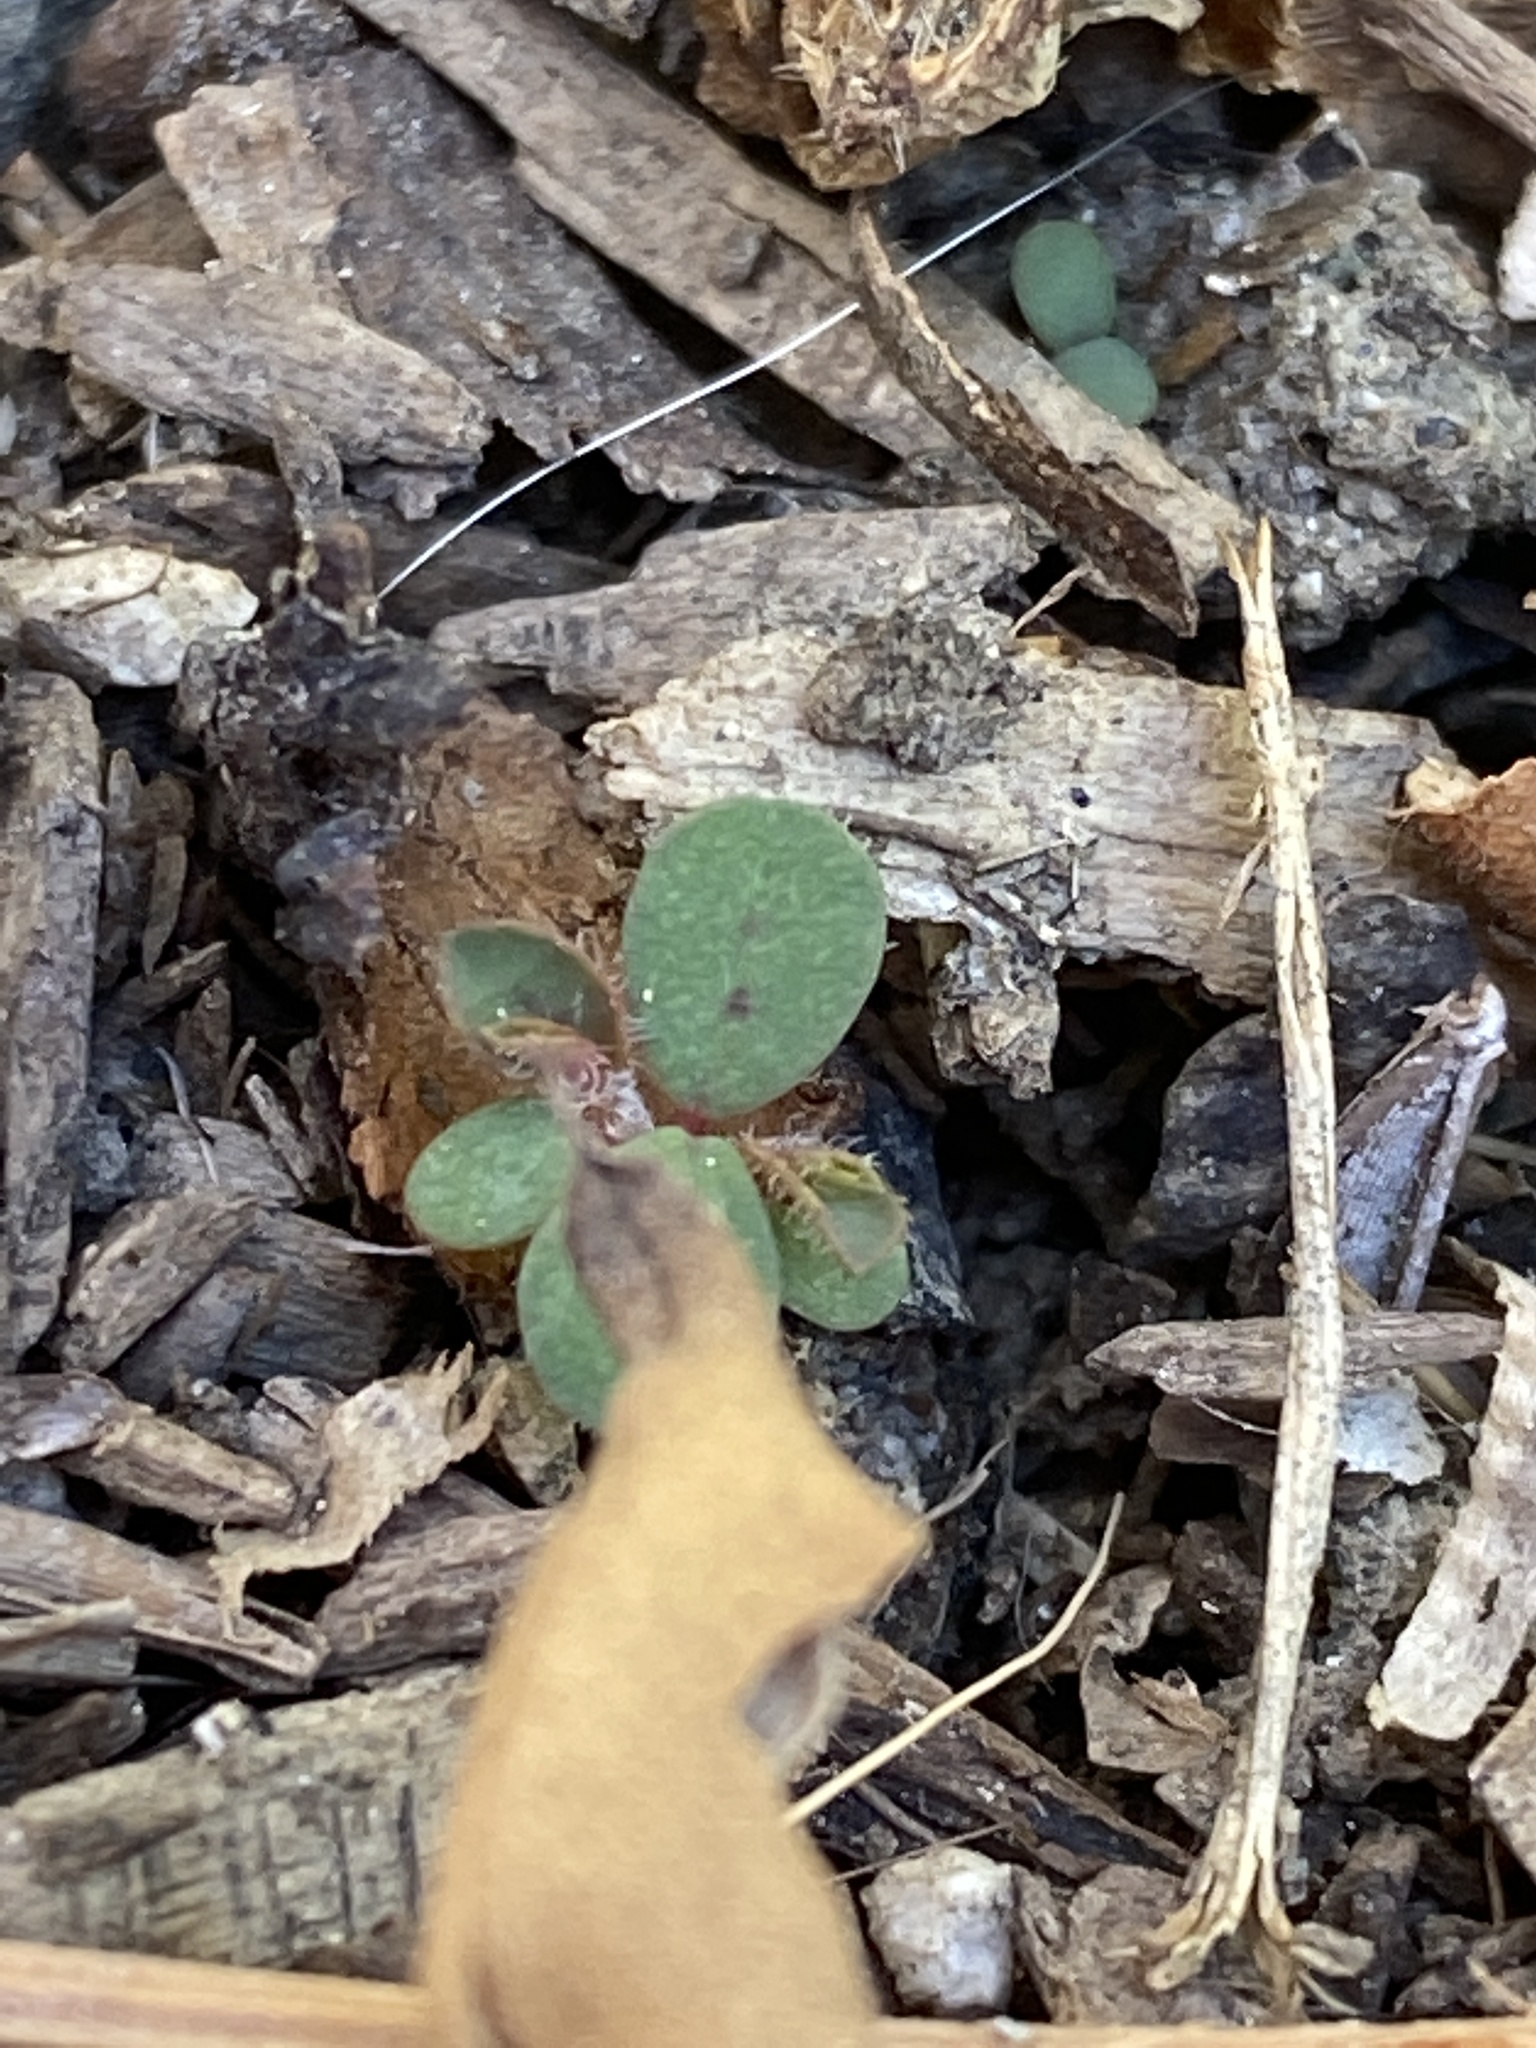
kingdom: Plantae
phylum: Tracheophyta
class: Magnoliopsida
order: Malpighiales
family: Euphorbiaceae
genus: Euphorbia
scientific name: Euphorbia maculata
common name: Spotted spurge
